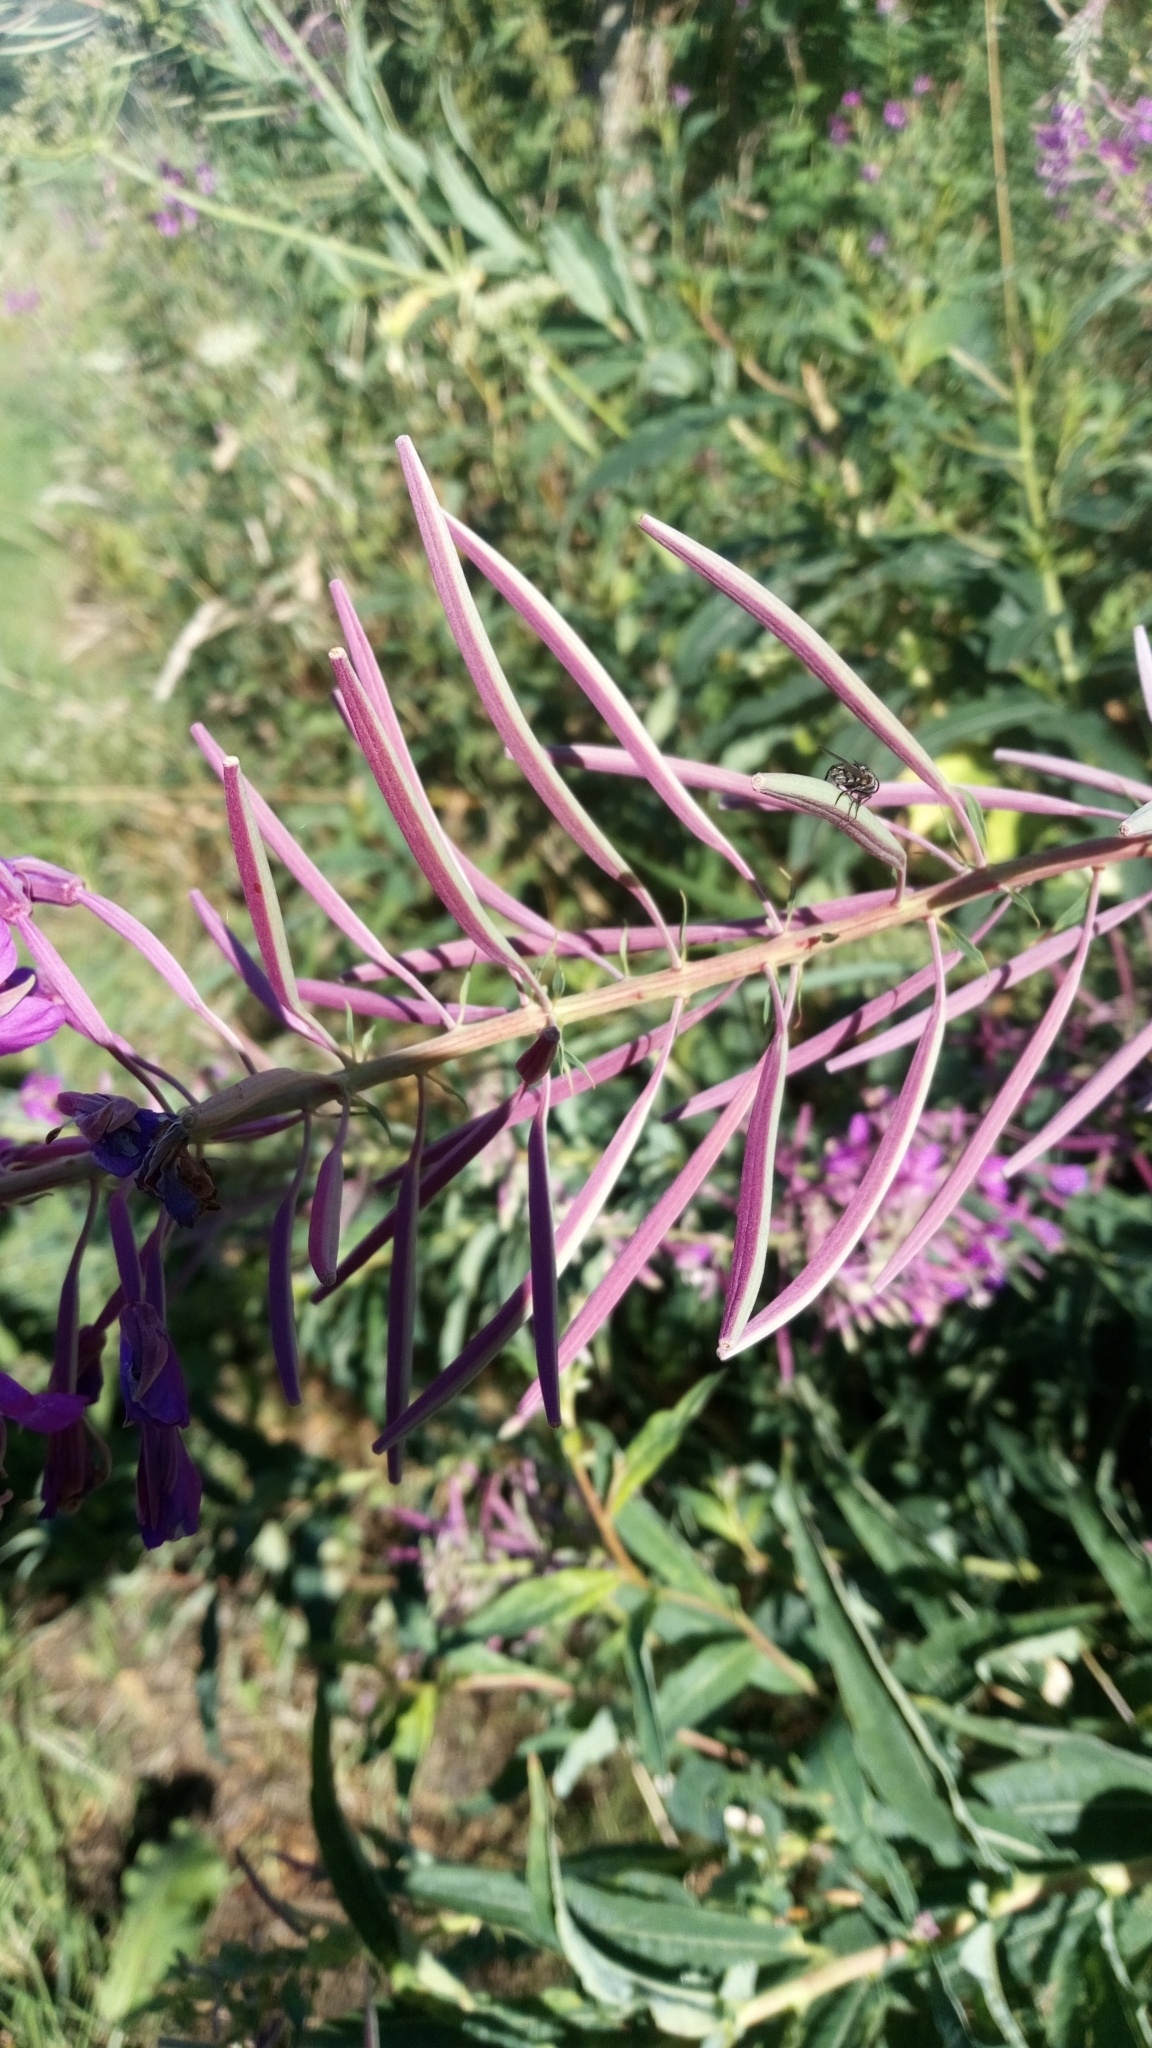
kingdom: Plantae
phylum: Tracheophyta
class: Magnoliopsida
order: Myrtales
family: Onagraceae
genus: Chamaenerion
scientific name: Chamaenerion angustifolium
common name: Fireweed
